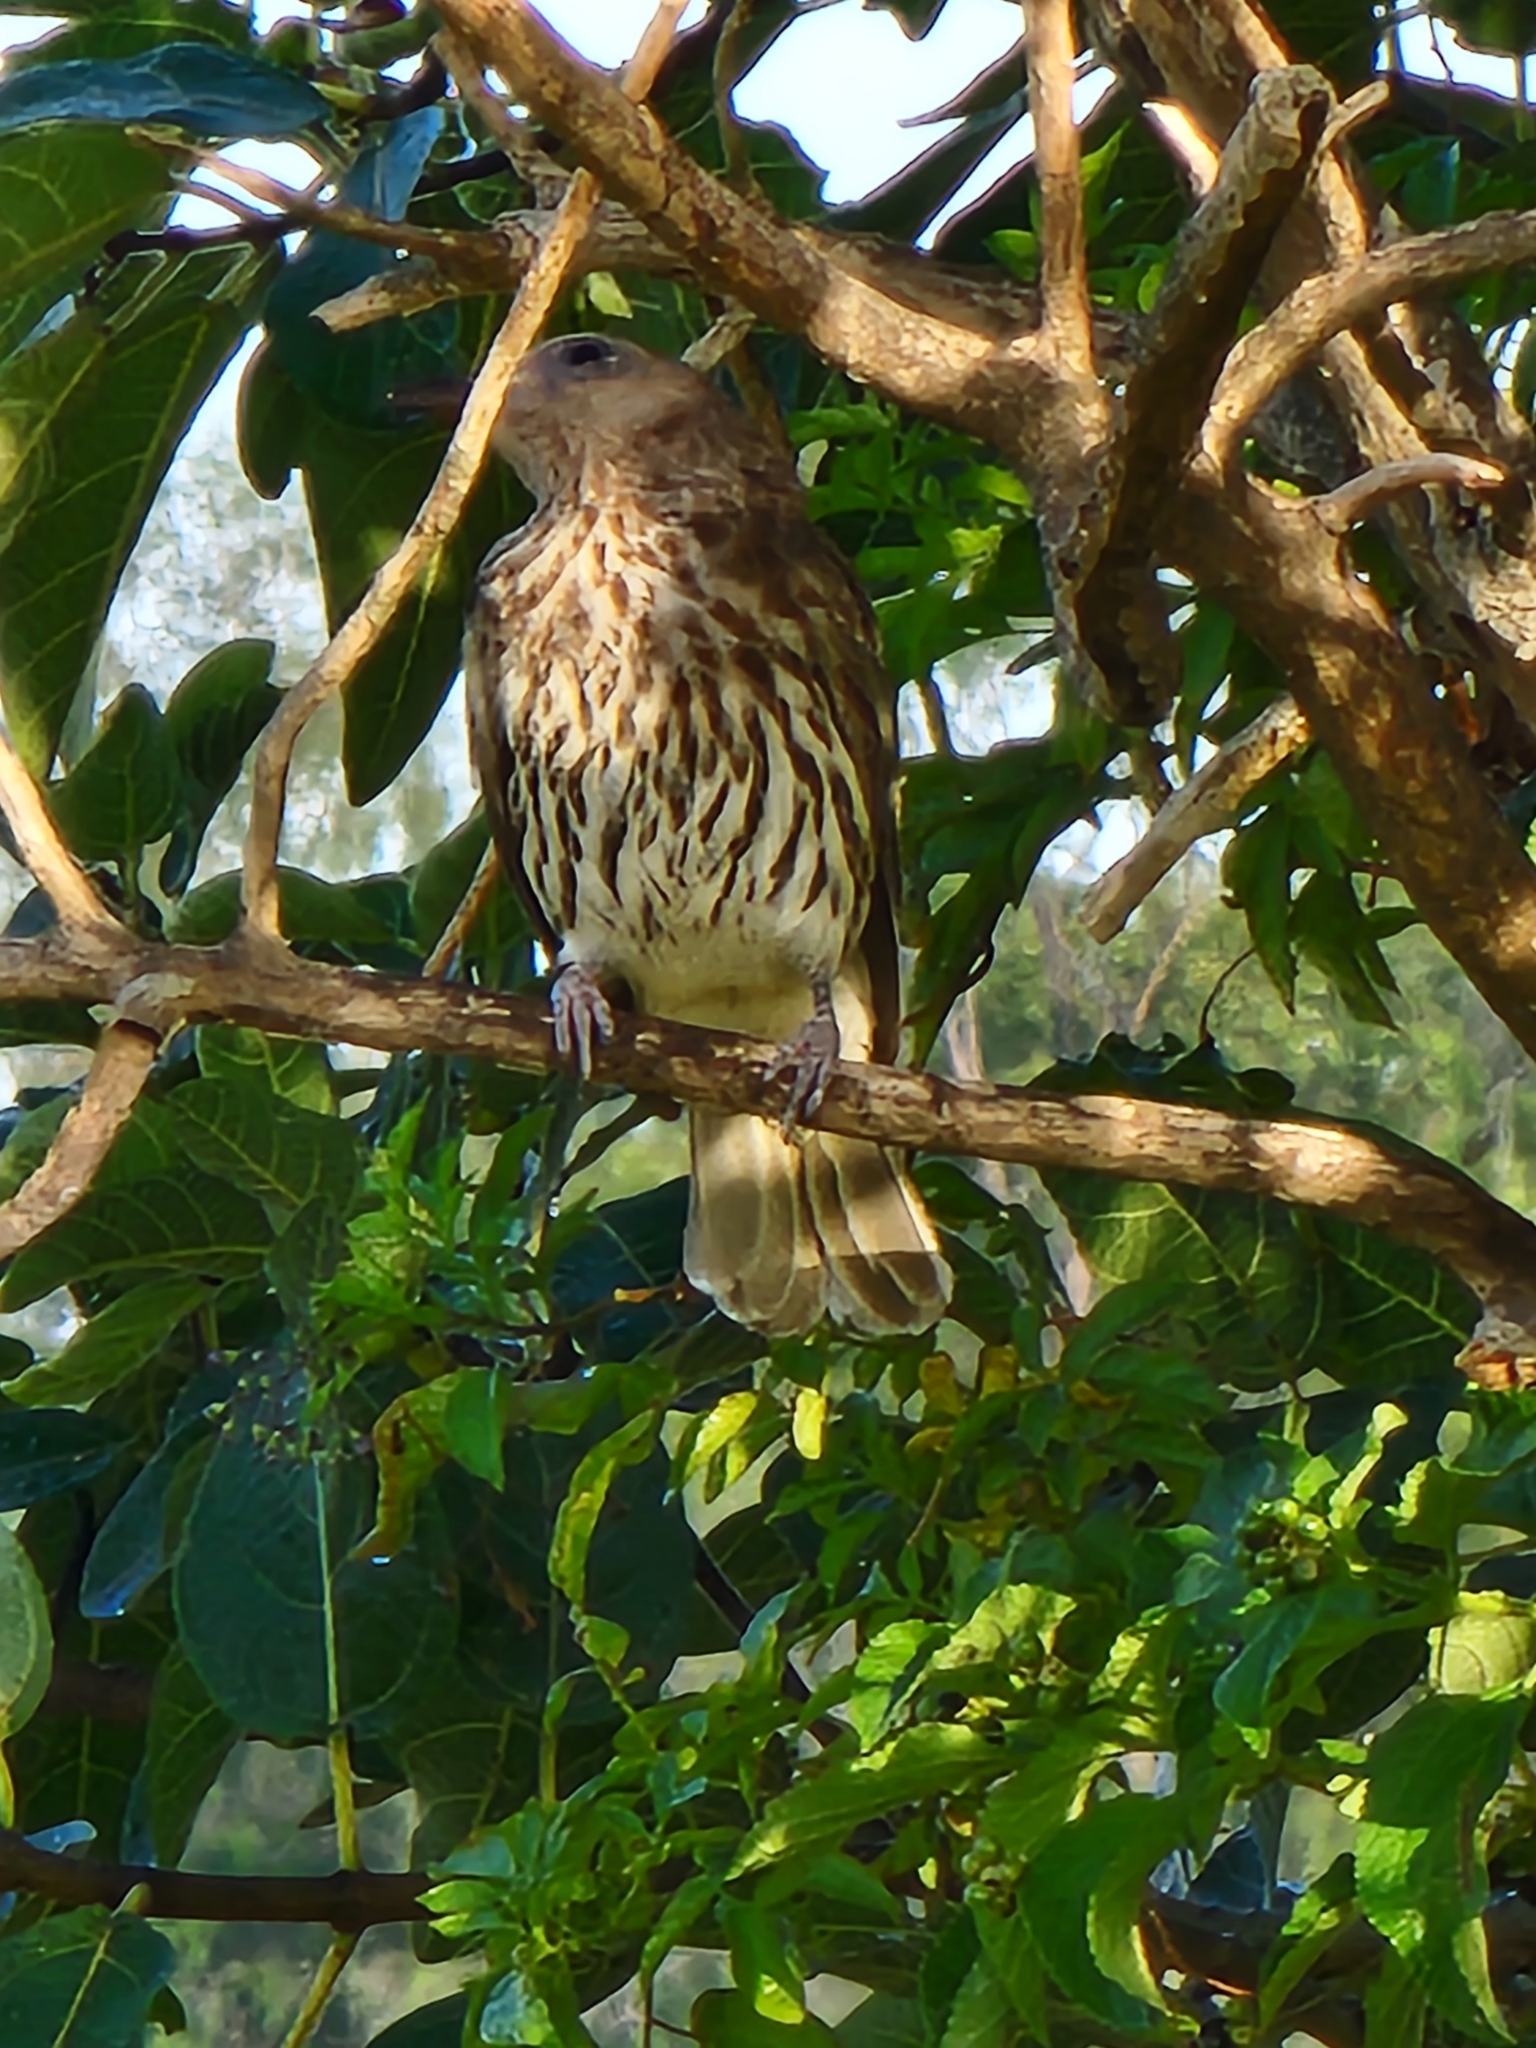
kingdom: Animalia
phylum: Chordata
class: Aves
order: Passeriformes
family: Oriolidae
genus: Sphecotheres
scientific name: Sphecotheres vieilloti
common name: Australasian figbird
